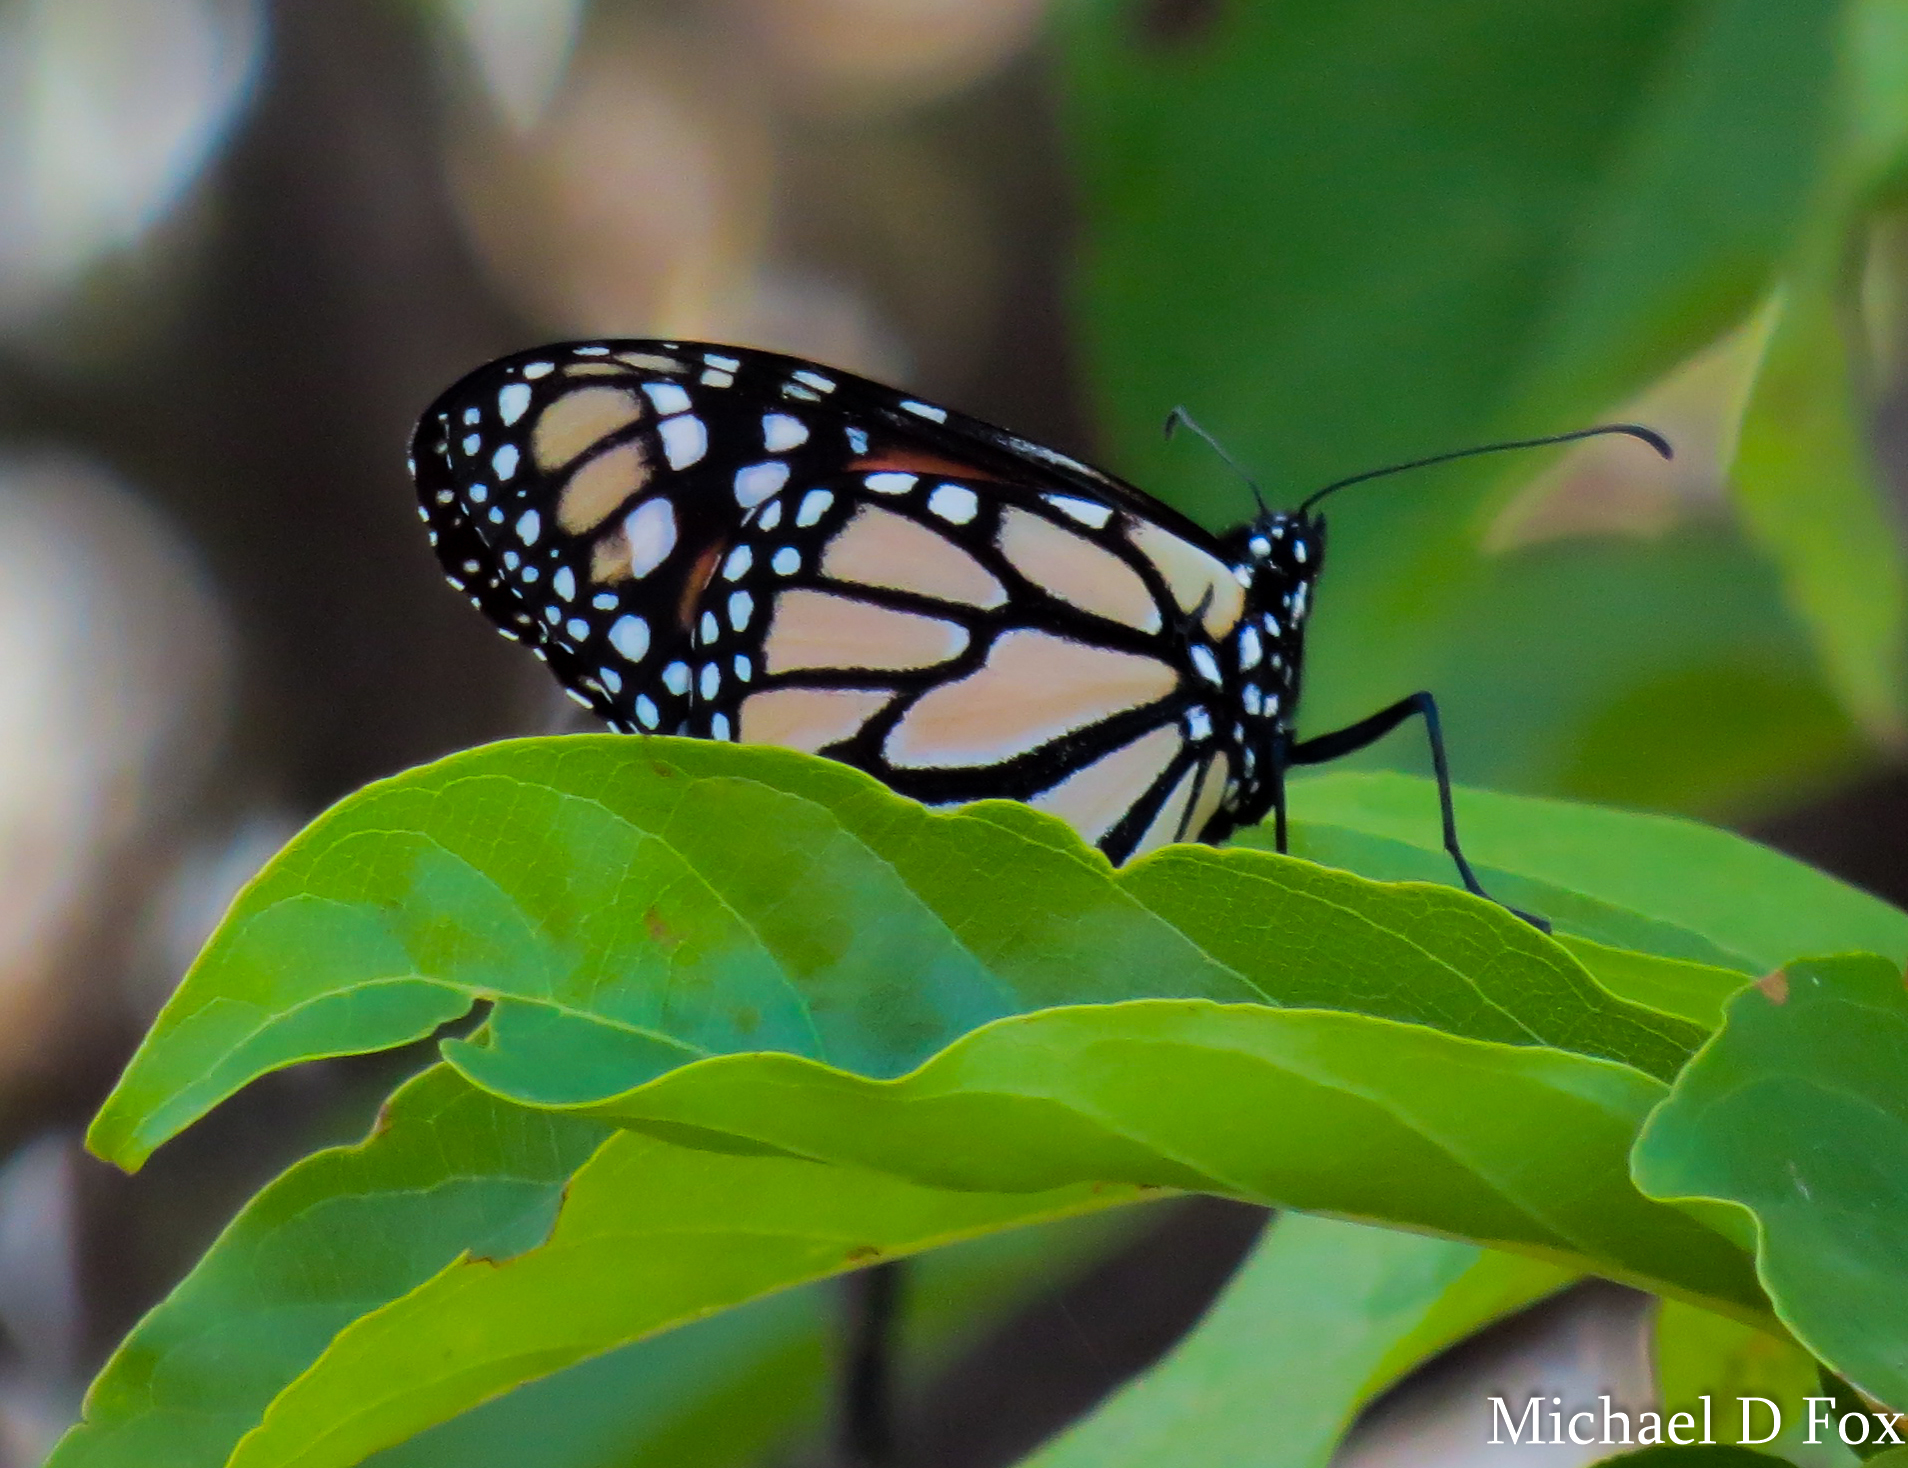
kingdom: Animalia
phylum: Arthropoda
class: Insecta
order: Lepidoptera
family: Nymphalidae
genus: Danaus
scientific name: Danaus plexippus
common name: Monarch
